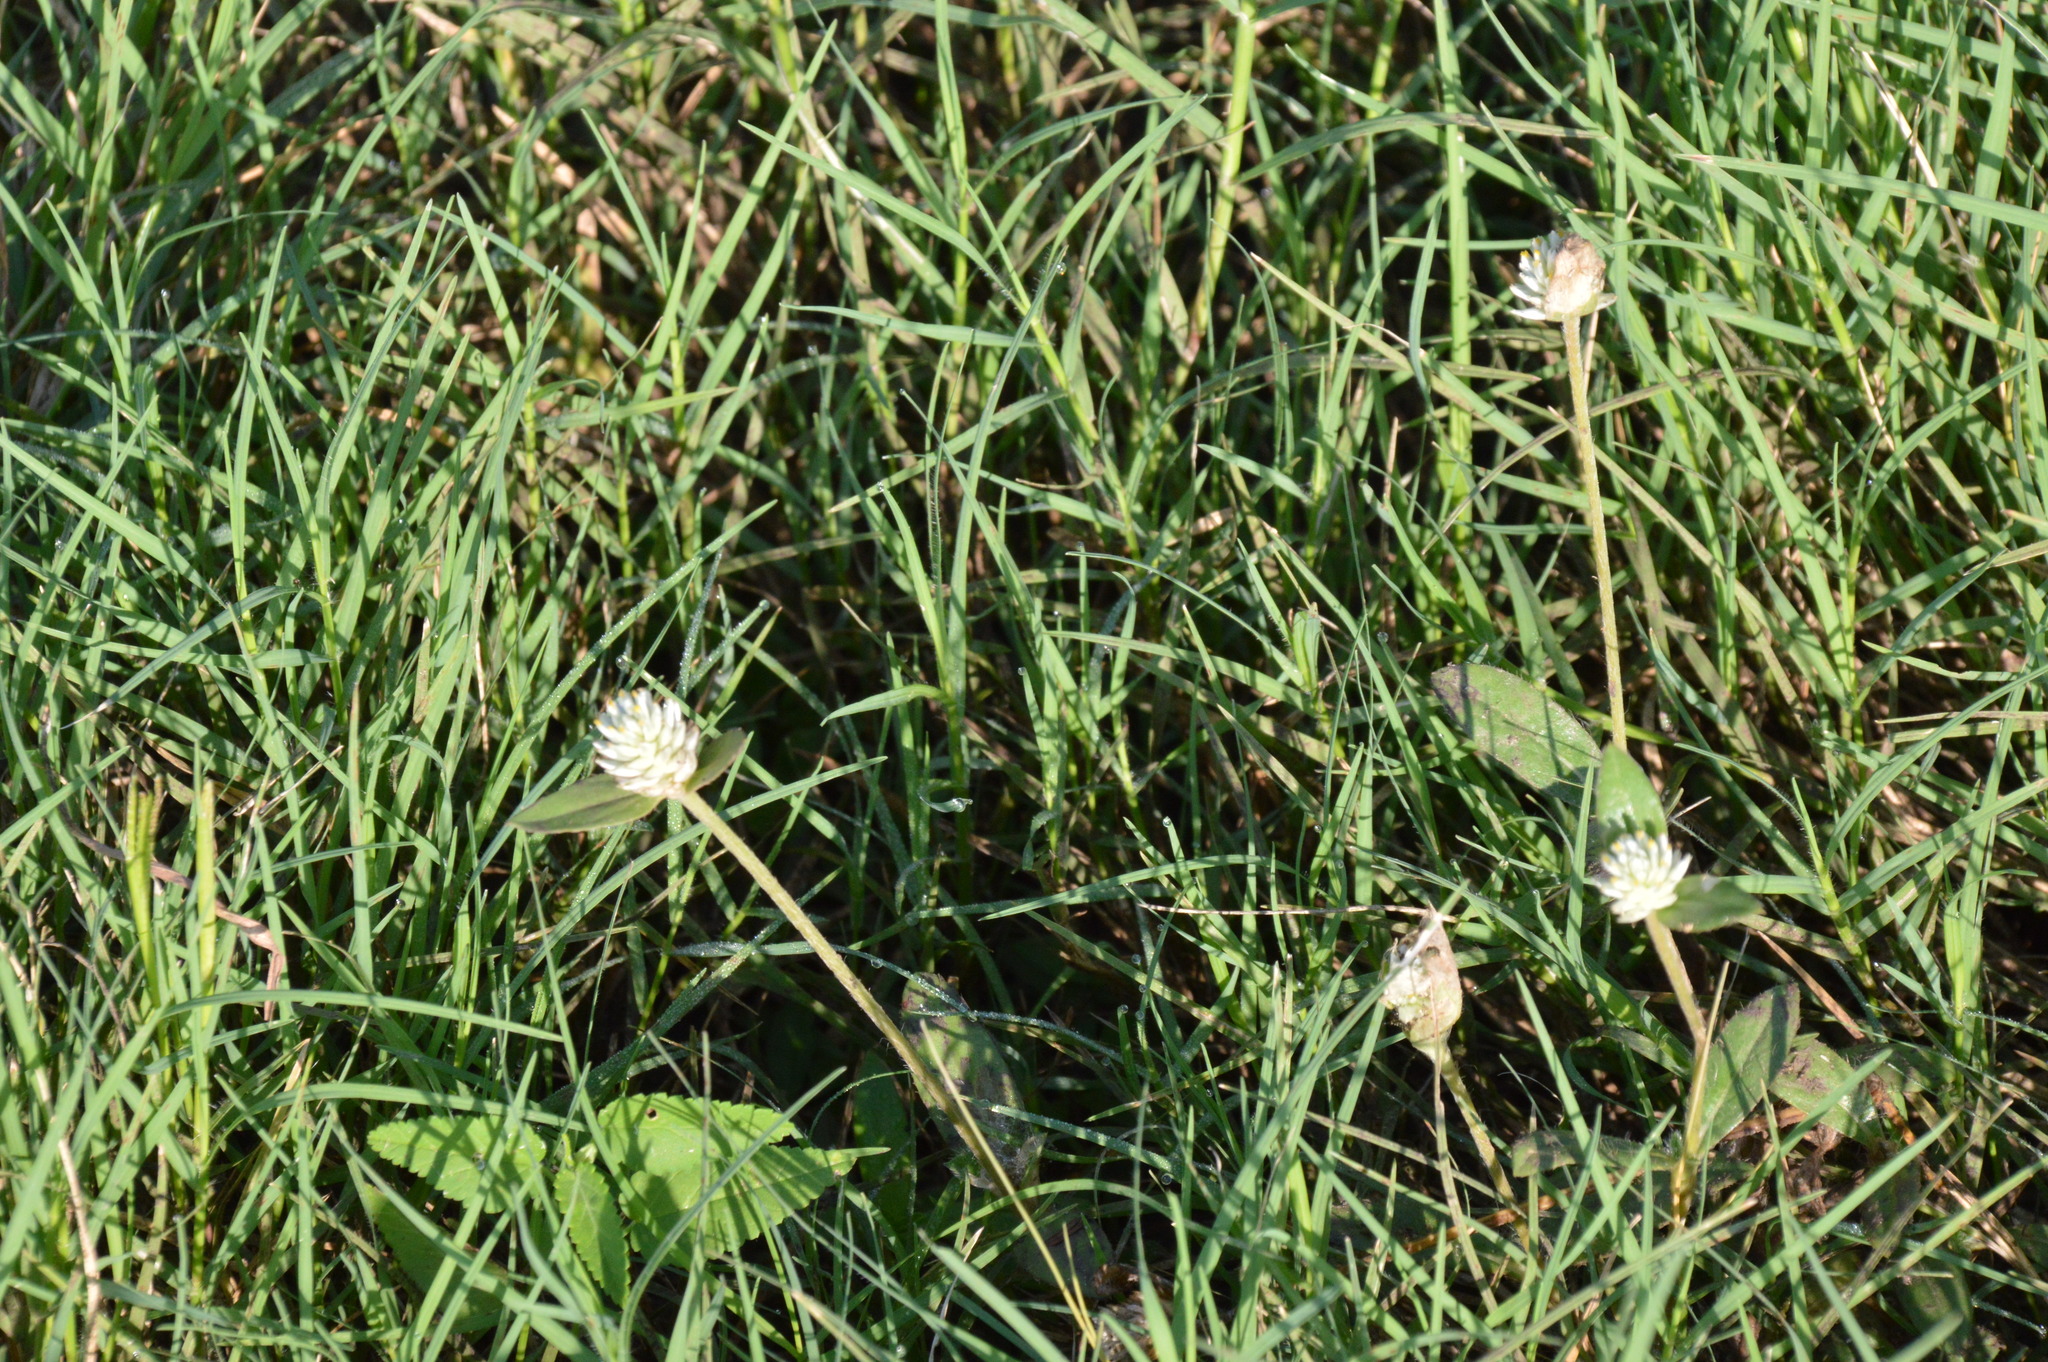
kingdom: Plantae
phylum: Tracheophyta
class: Magnoliopsida
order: Caryophyllales
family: Amaranthaceae
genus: Gomphrena
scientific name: Gomphrena serrata
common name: Arrasa con todo
